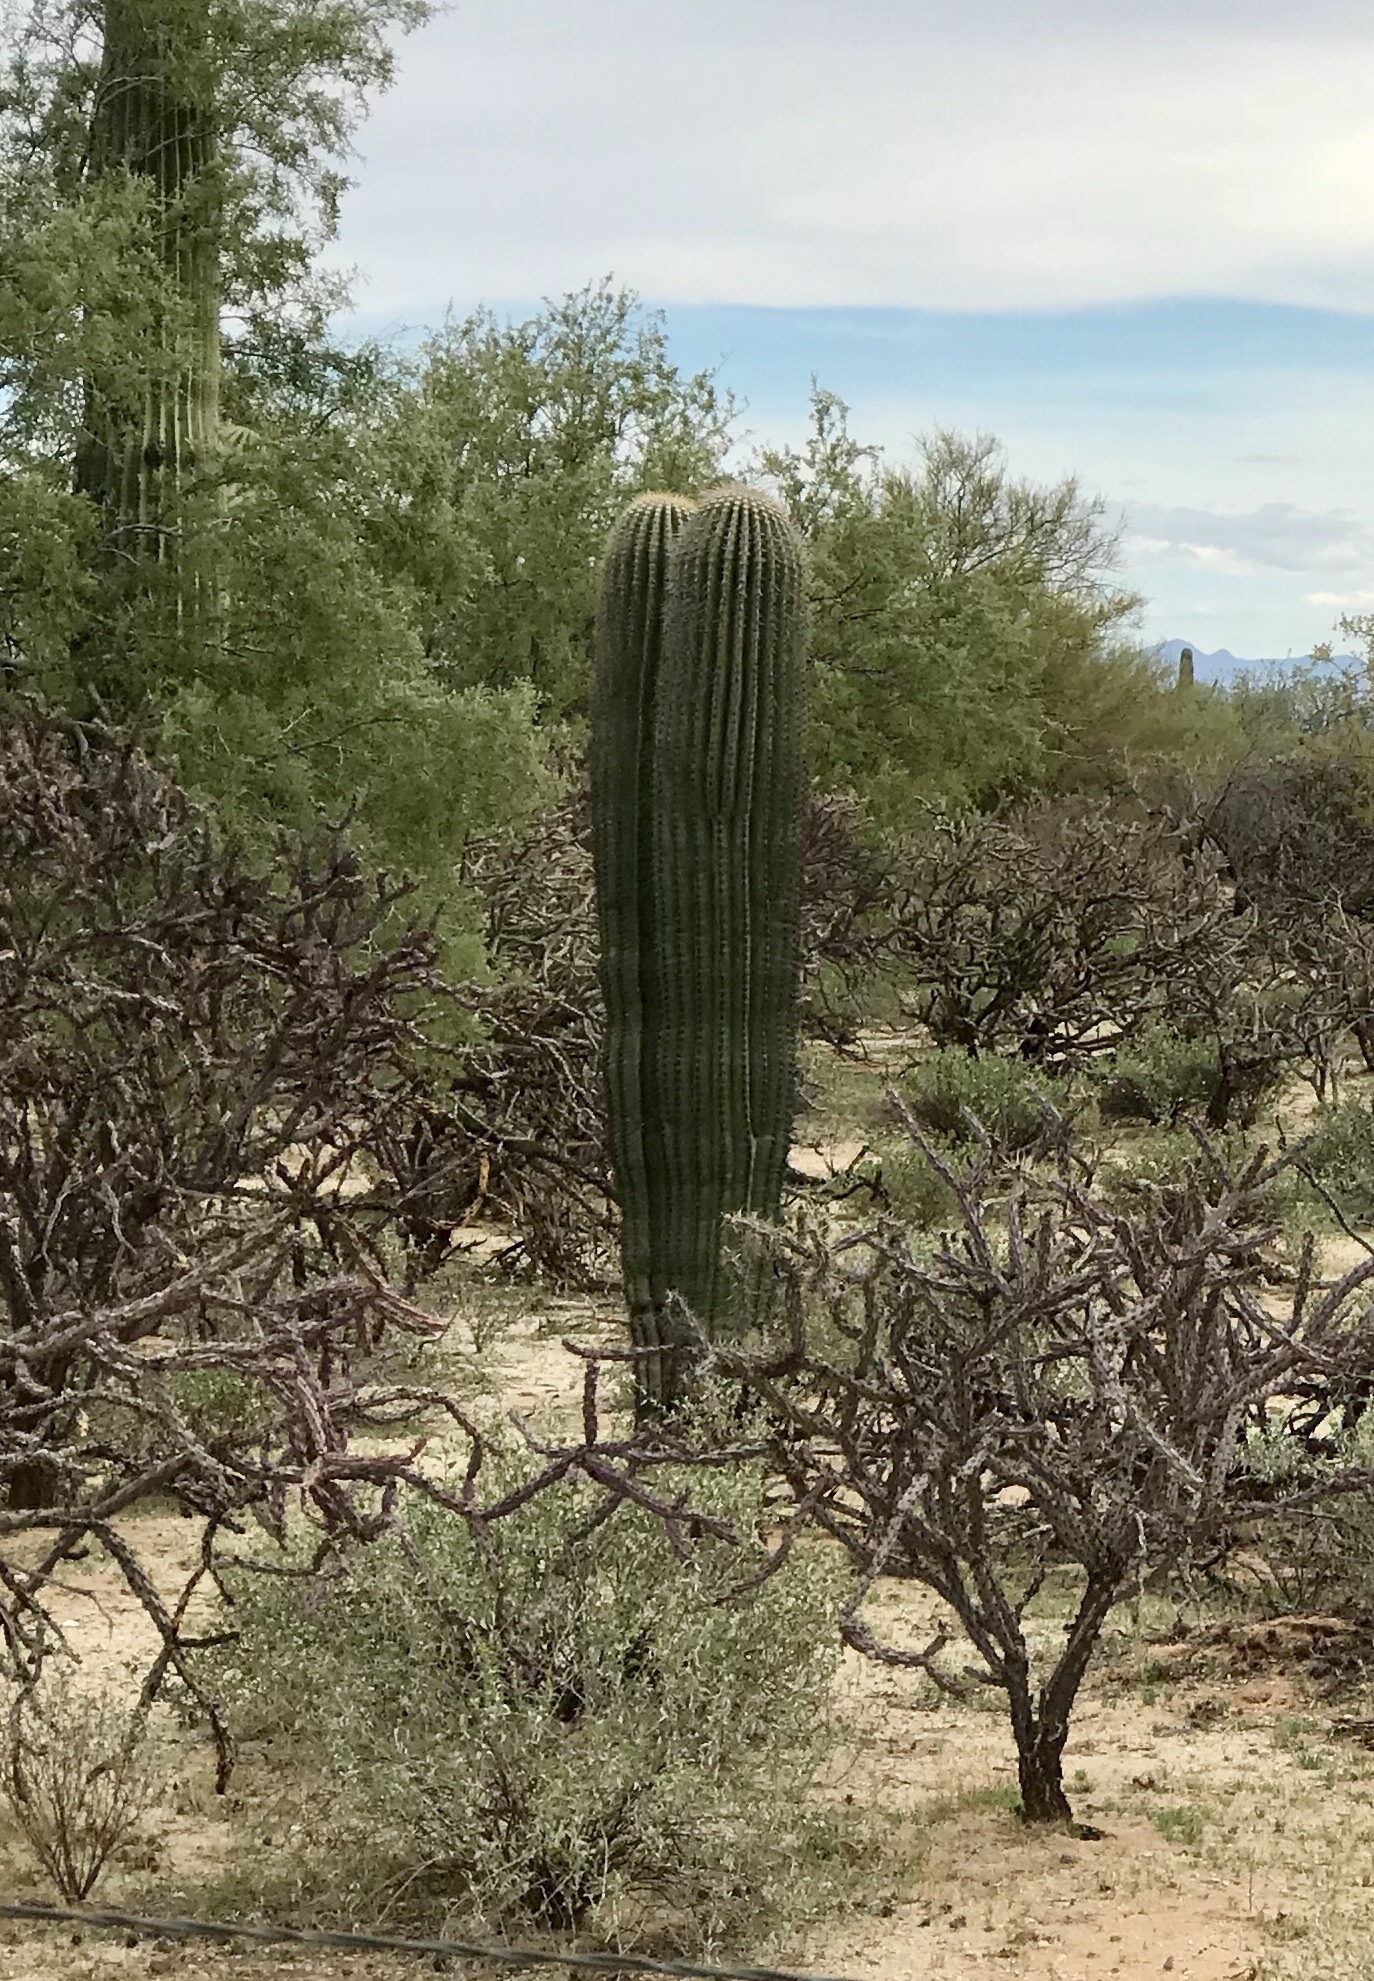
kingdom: Plantae
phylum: Tracheophyta
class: Magnoliopsida
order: Caryophyllales
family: Cactaceae
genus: Carnegiea
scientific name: Carnegiea gigantea
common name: Saguaro
